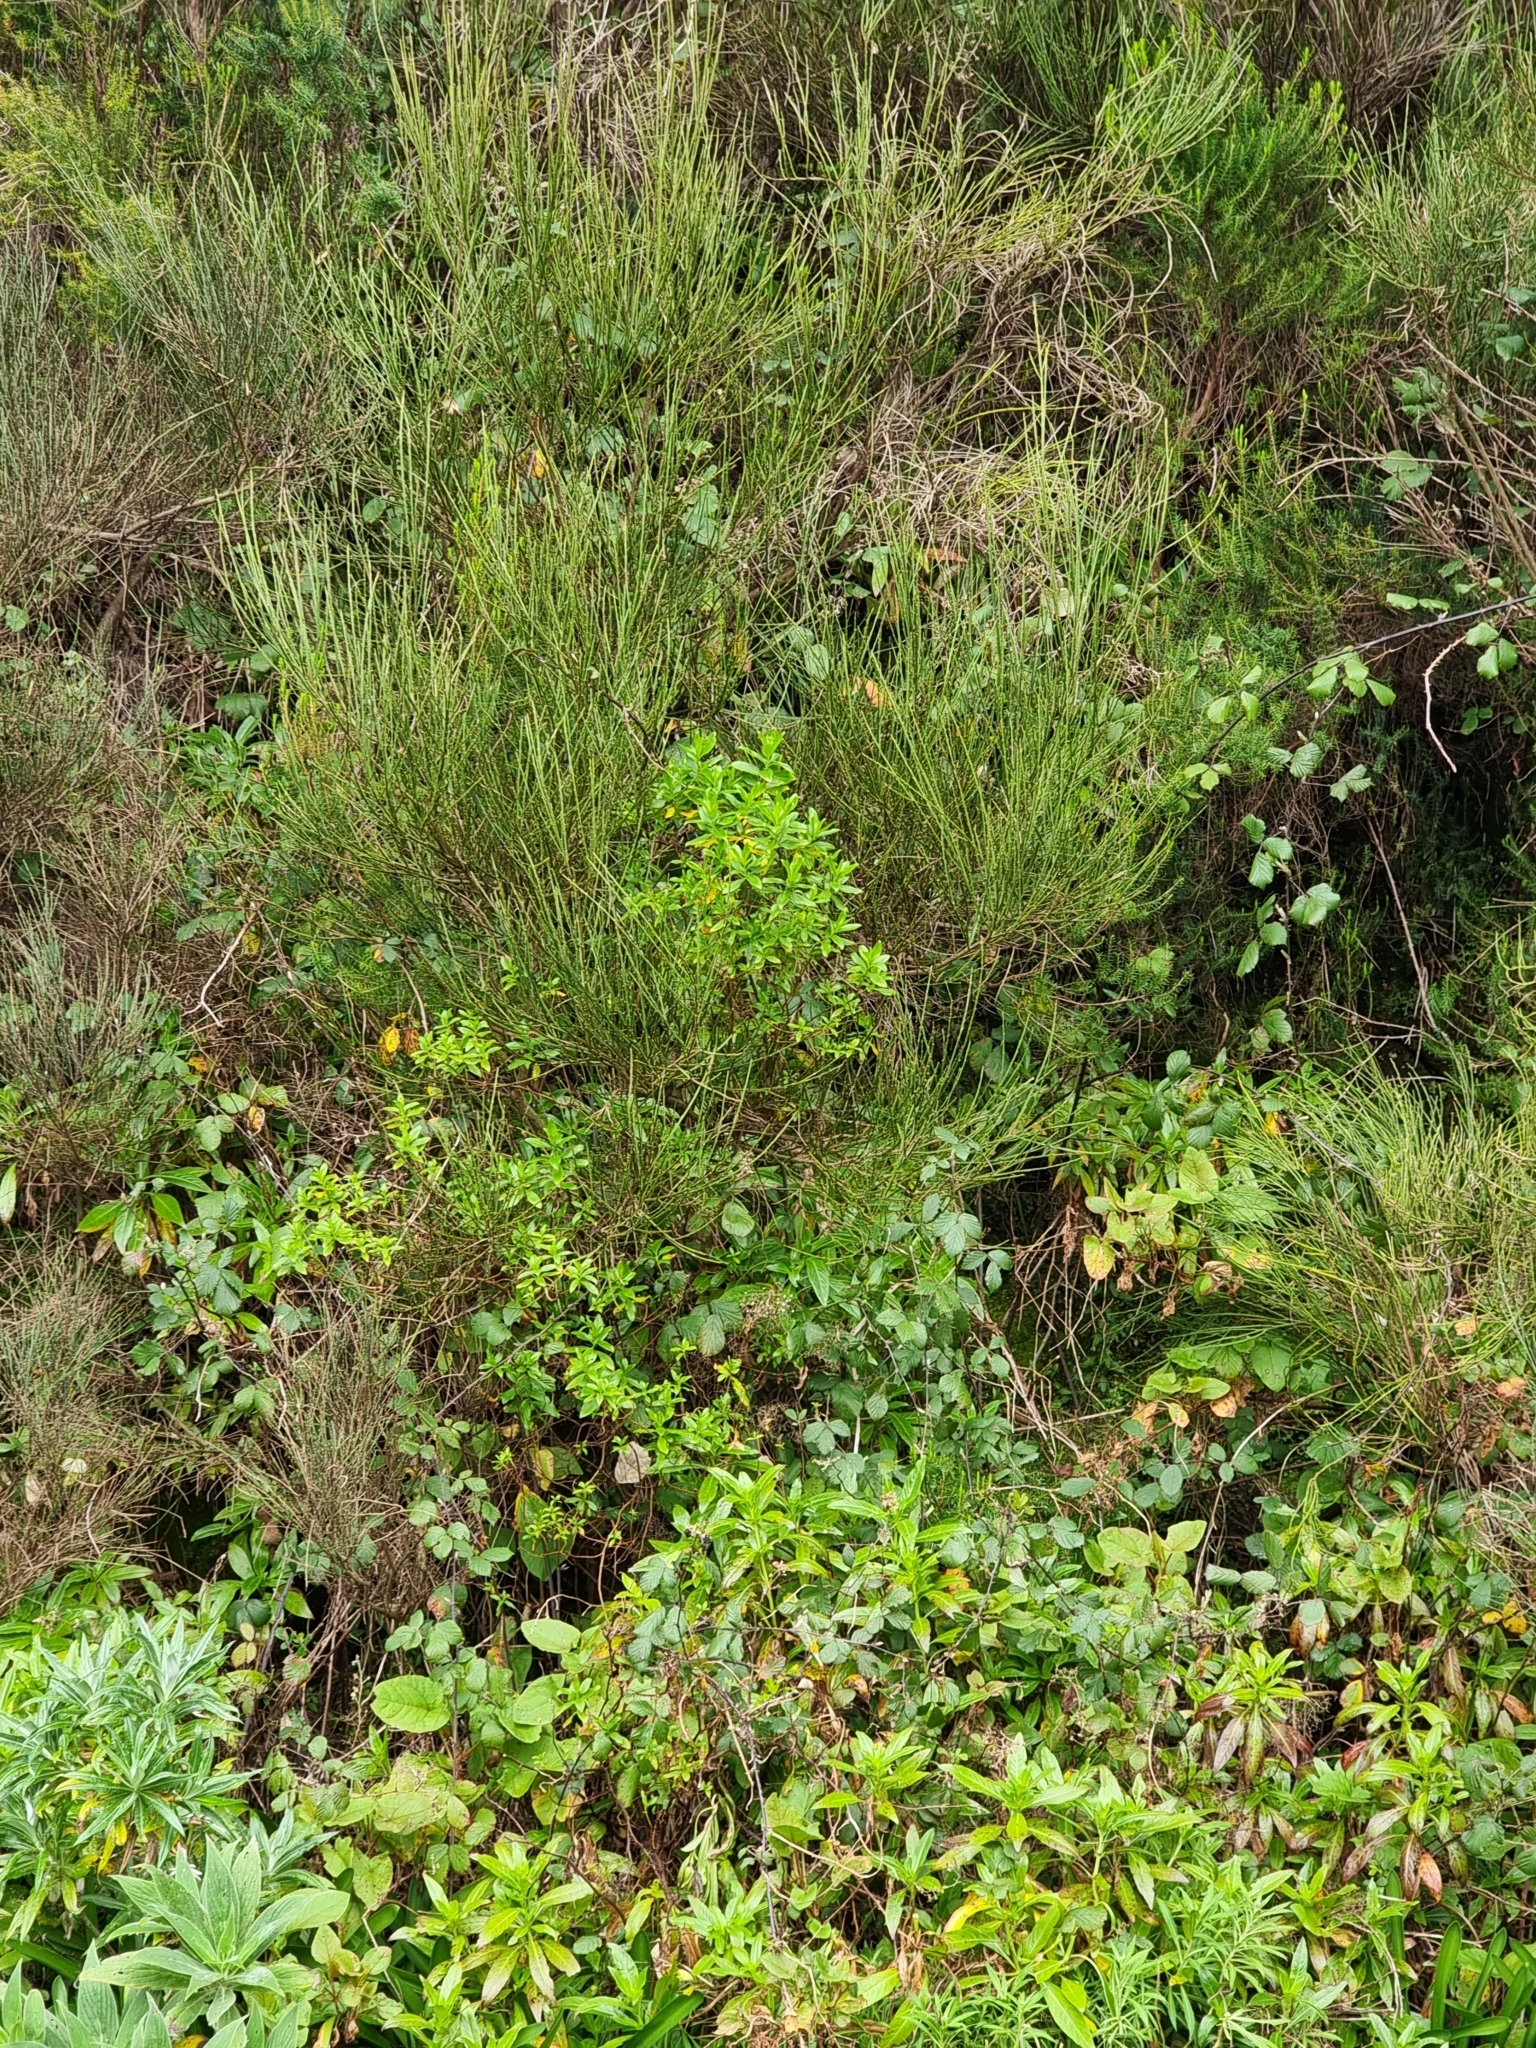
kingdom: Plantae
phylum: Tracheophyta
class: Magnoliopsida
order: Malpighiales
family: Hypericaceae
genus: Hypericum
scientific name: Hypericum glandulosum
